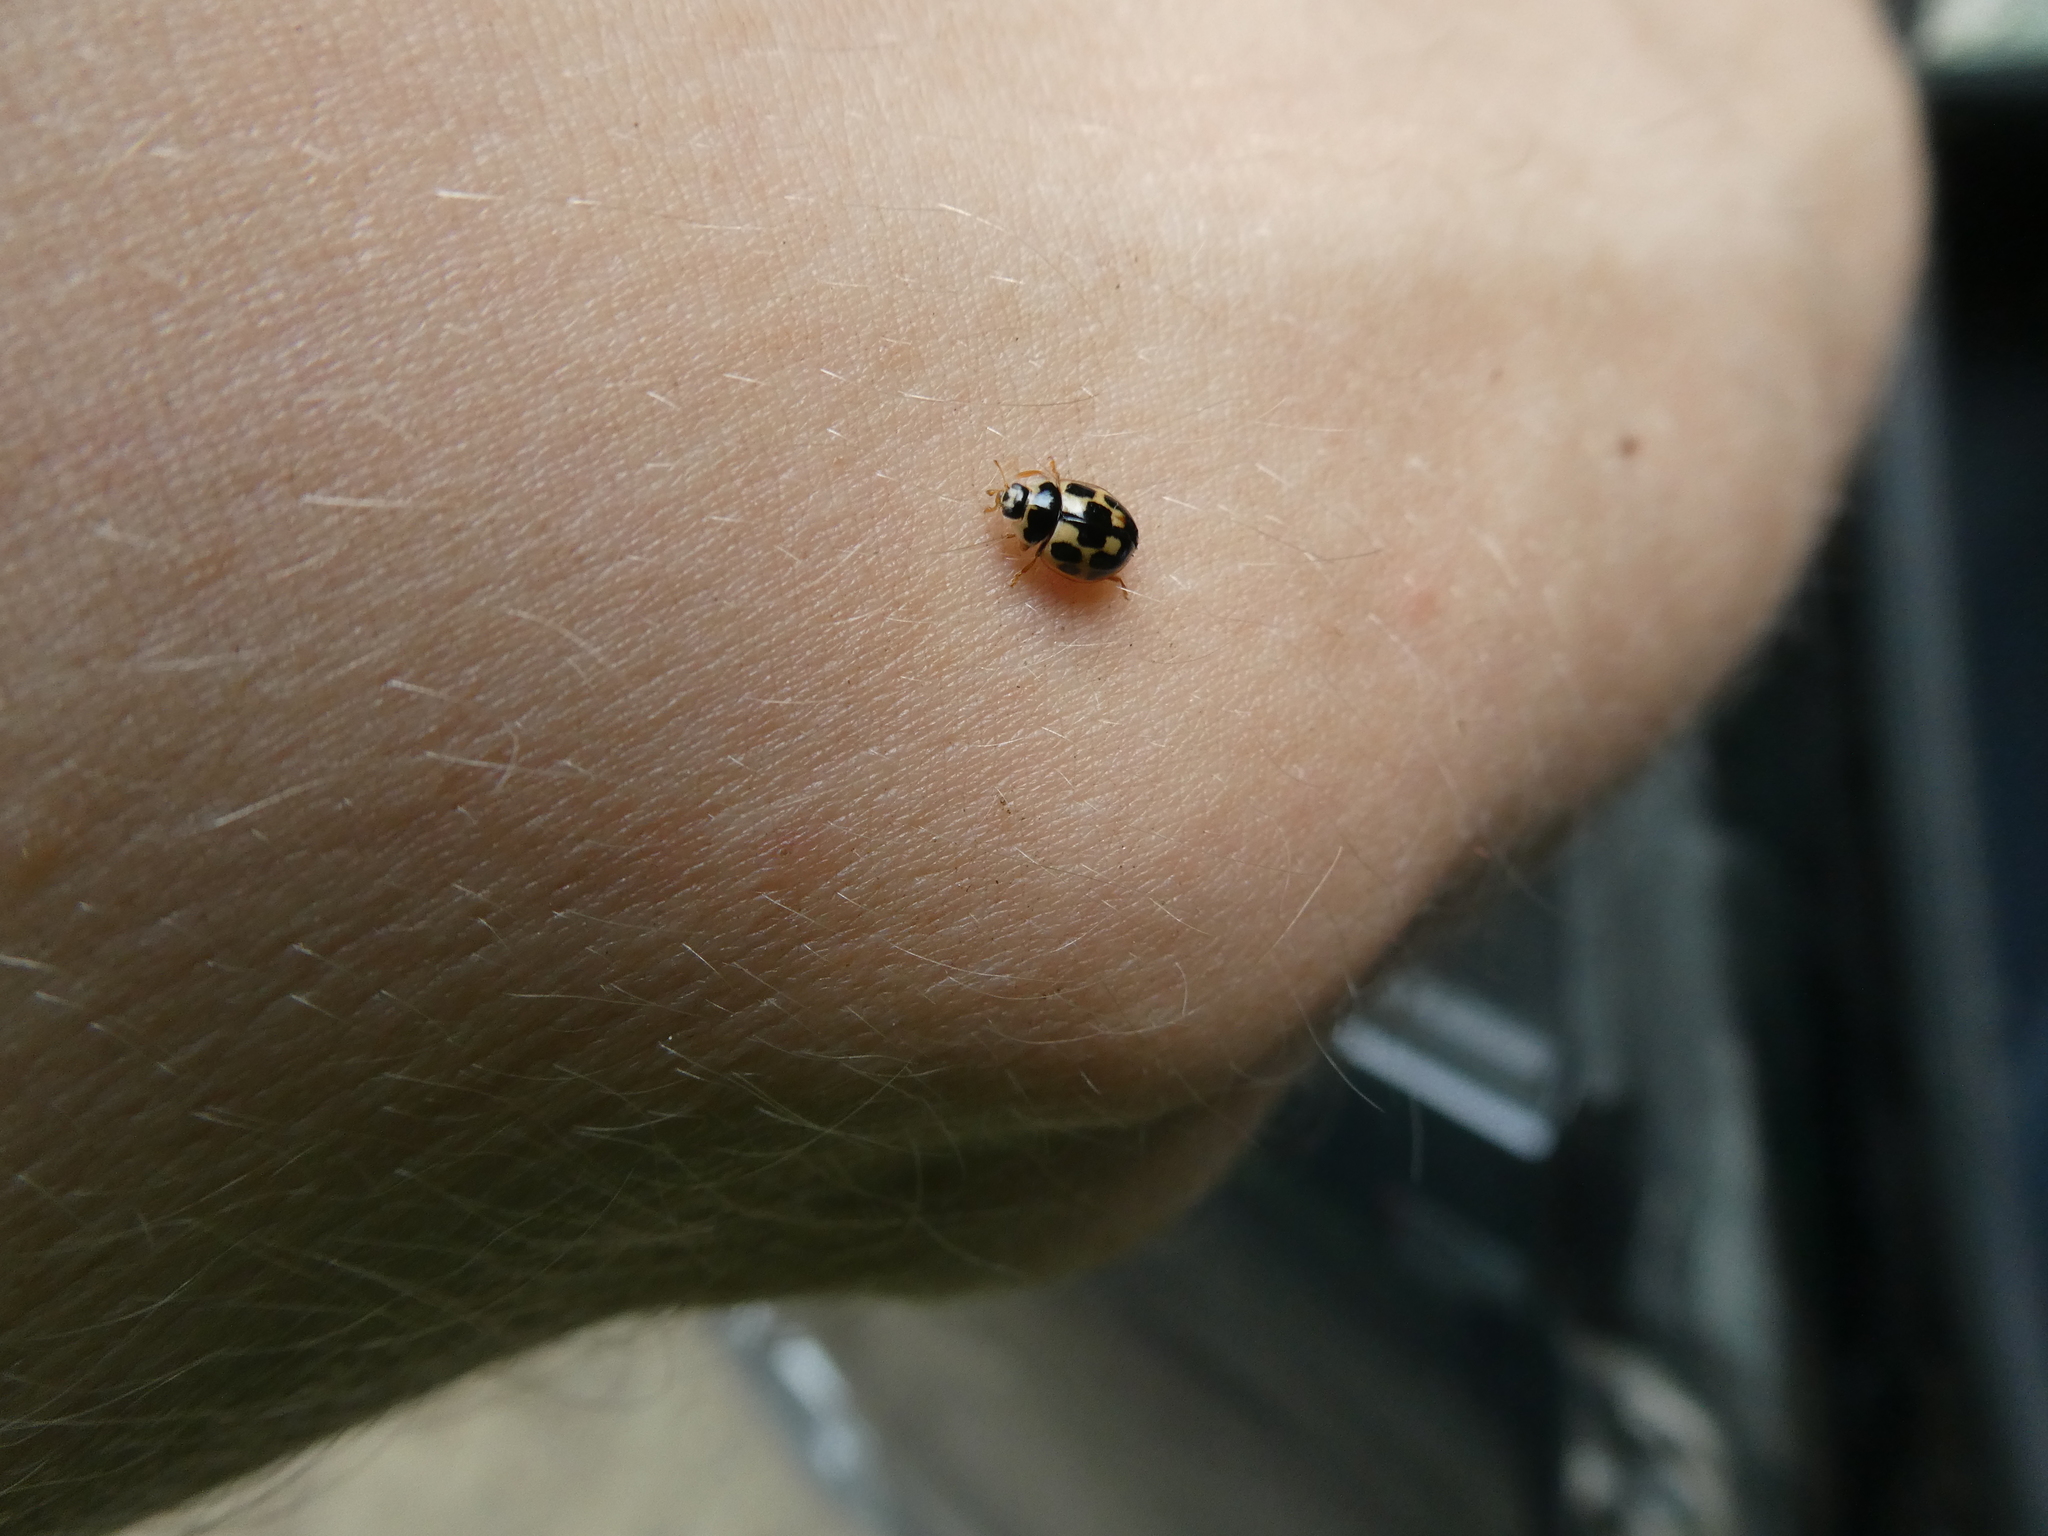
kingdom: Animalia
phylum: Arthropoda
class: Insecta
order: Coleoptera
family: Coccinellidae
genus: Propylaea
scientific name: Propylaea quatuordecimpunctata
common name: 14-spotted ladybird beetle
